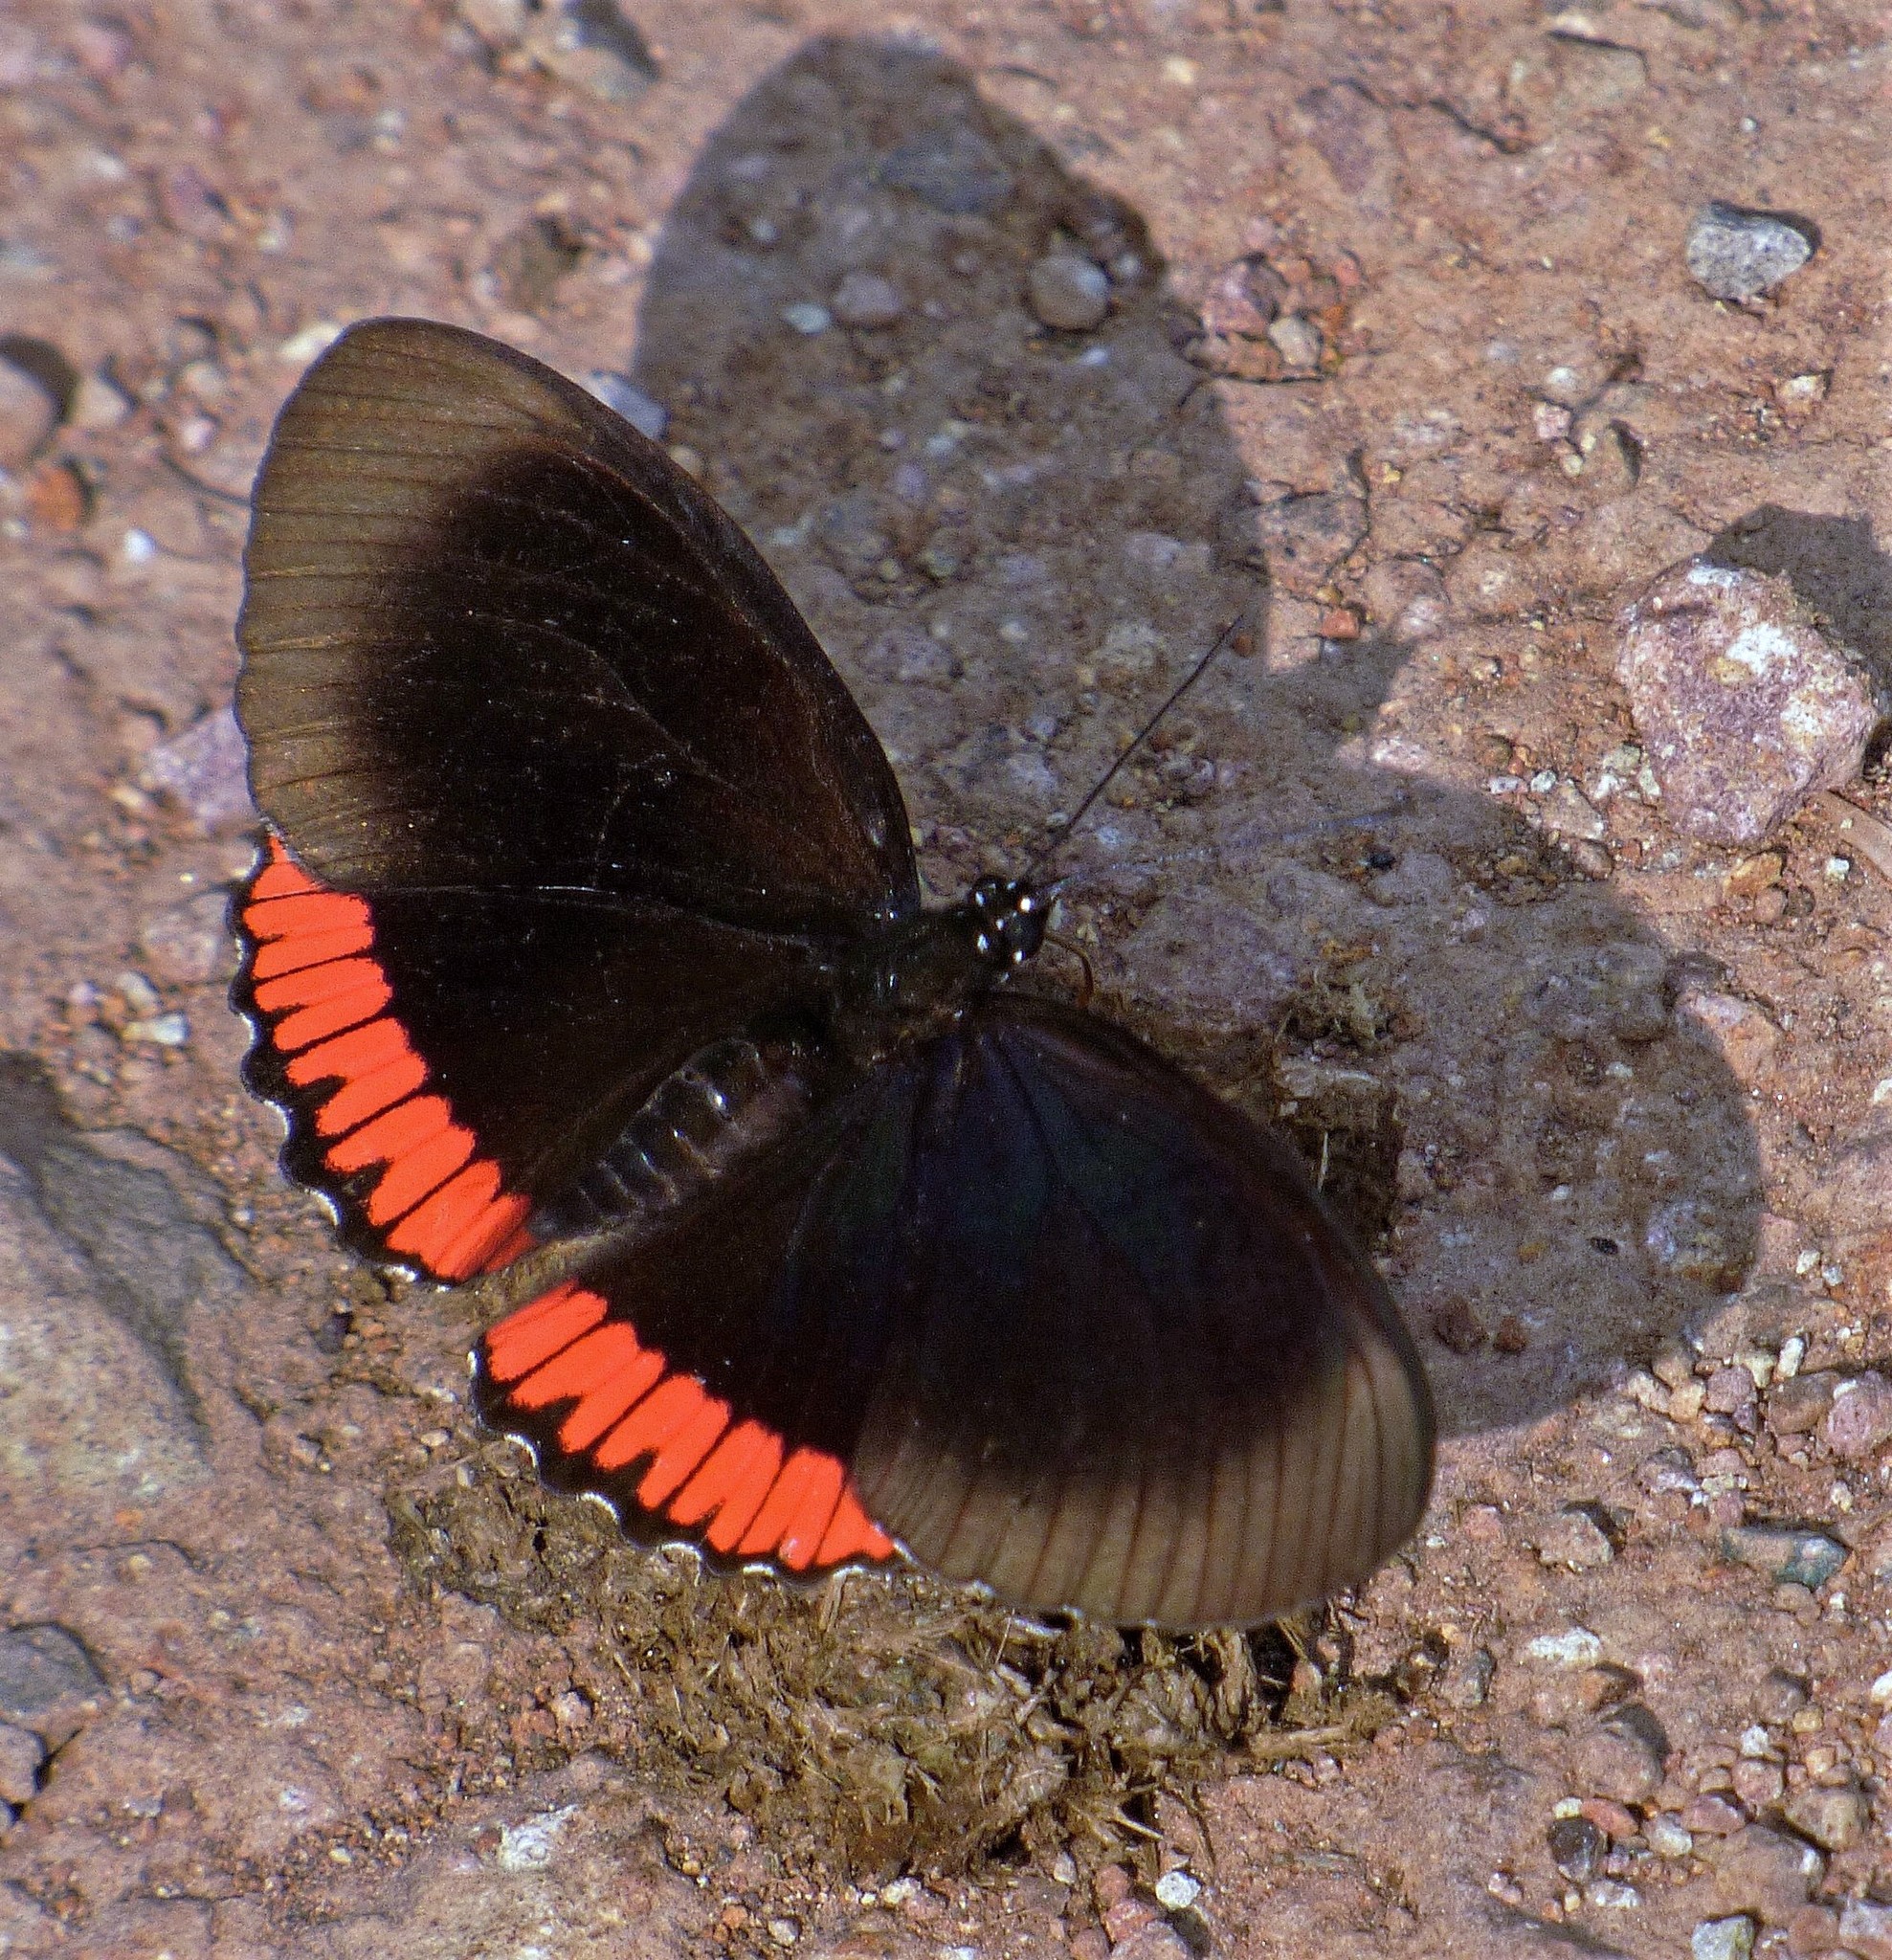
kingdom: Animalia
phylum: Arthropoda
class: Insecta
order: Lepidoptera
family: Sesiidae
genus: Sesia
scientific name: Sesia Biblis hyperia
